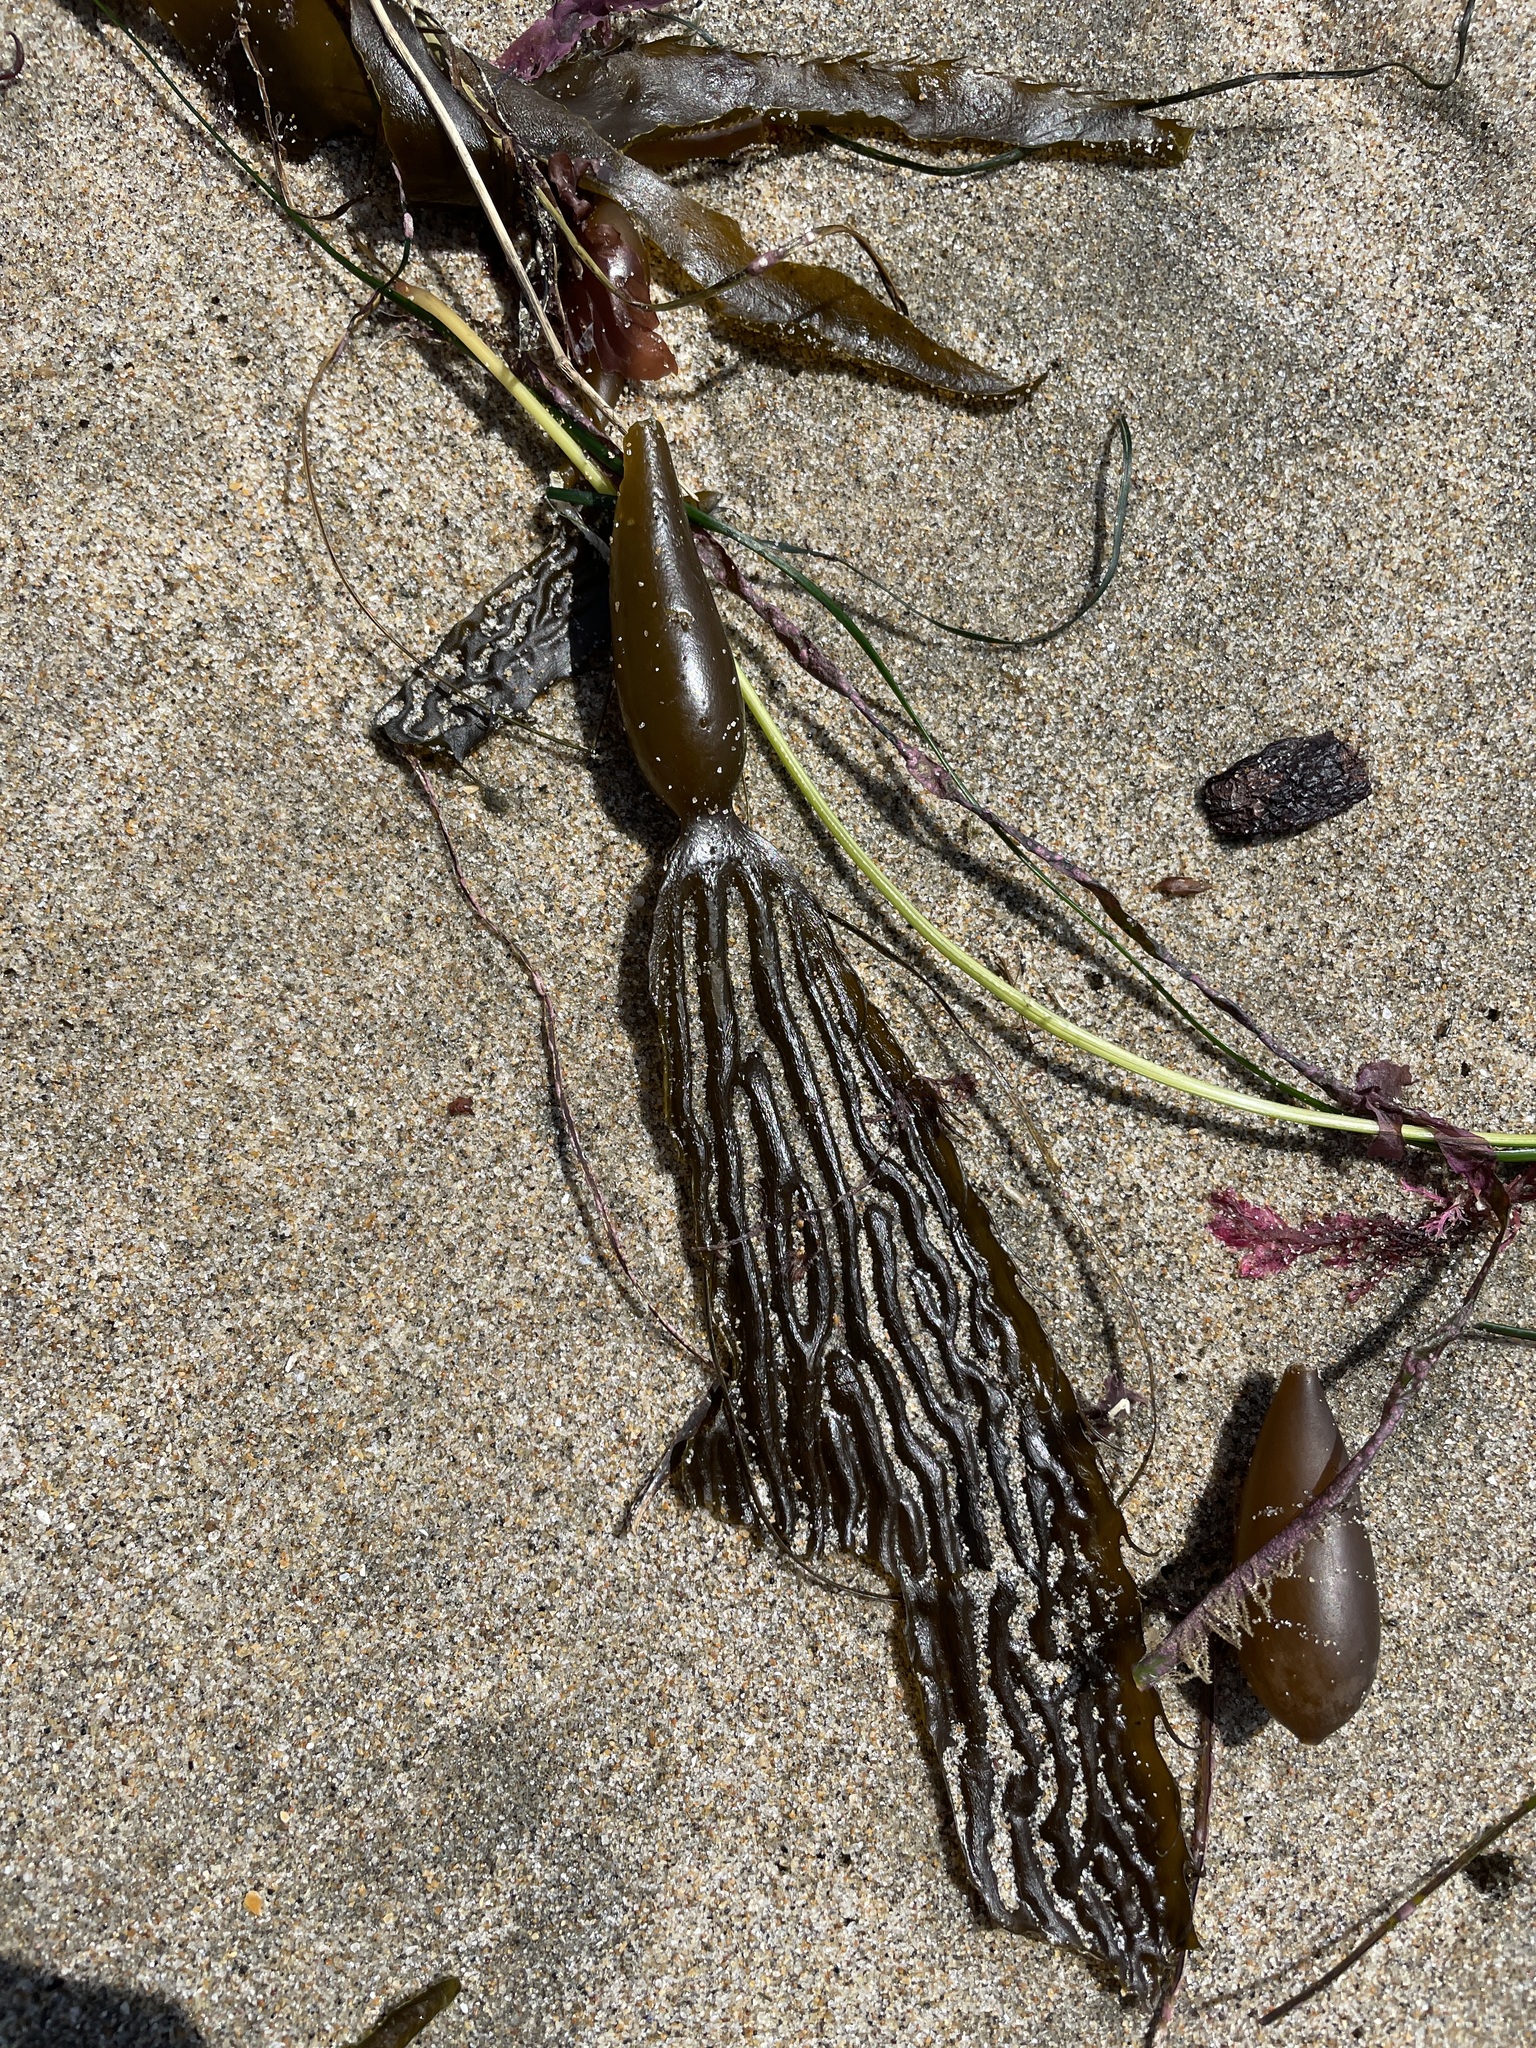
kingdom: Chromista
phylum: Ochrophyta
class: Phaeophyceae
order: Laminariales
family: Laminariaceae
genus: Macrocystis
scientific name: Macrocystis pyrifera
